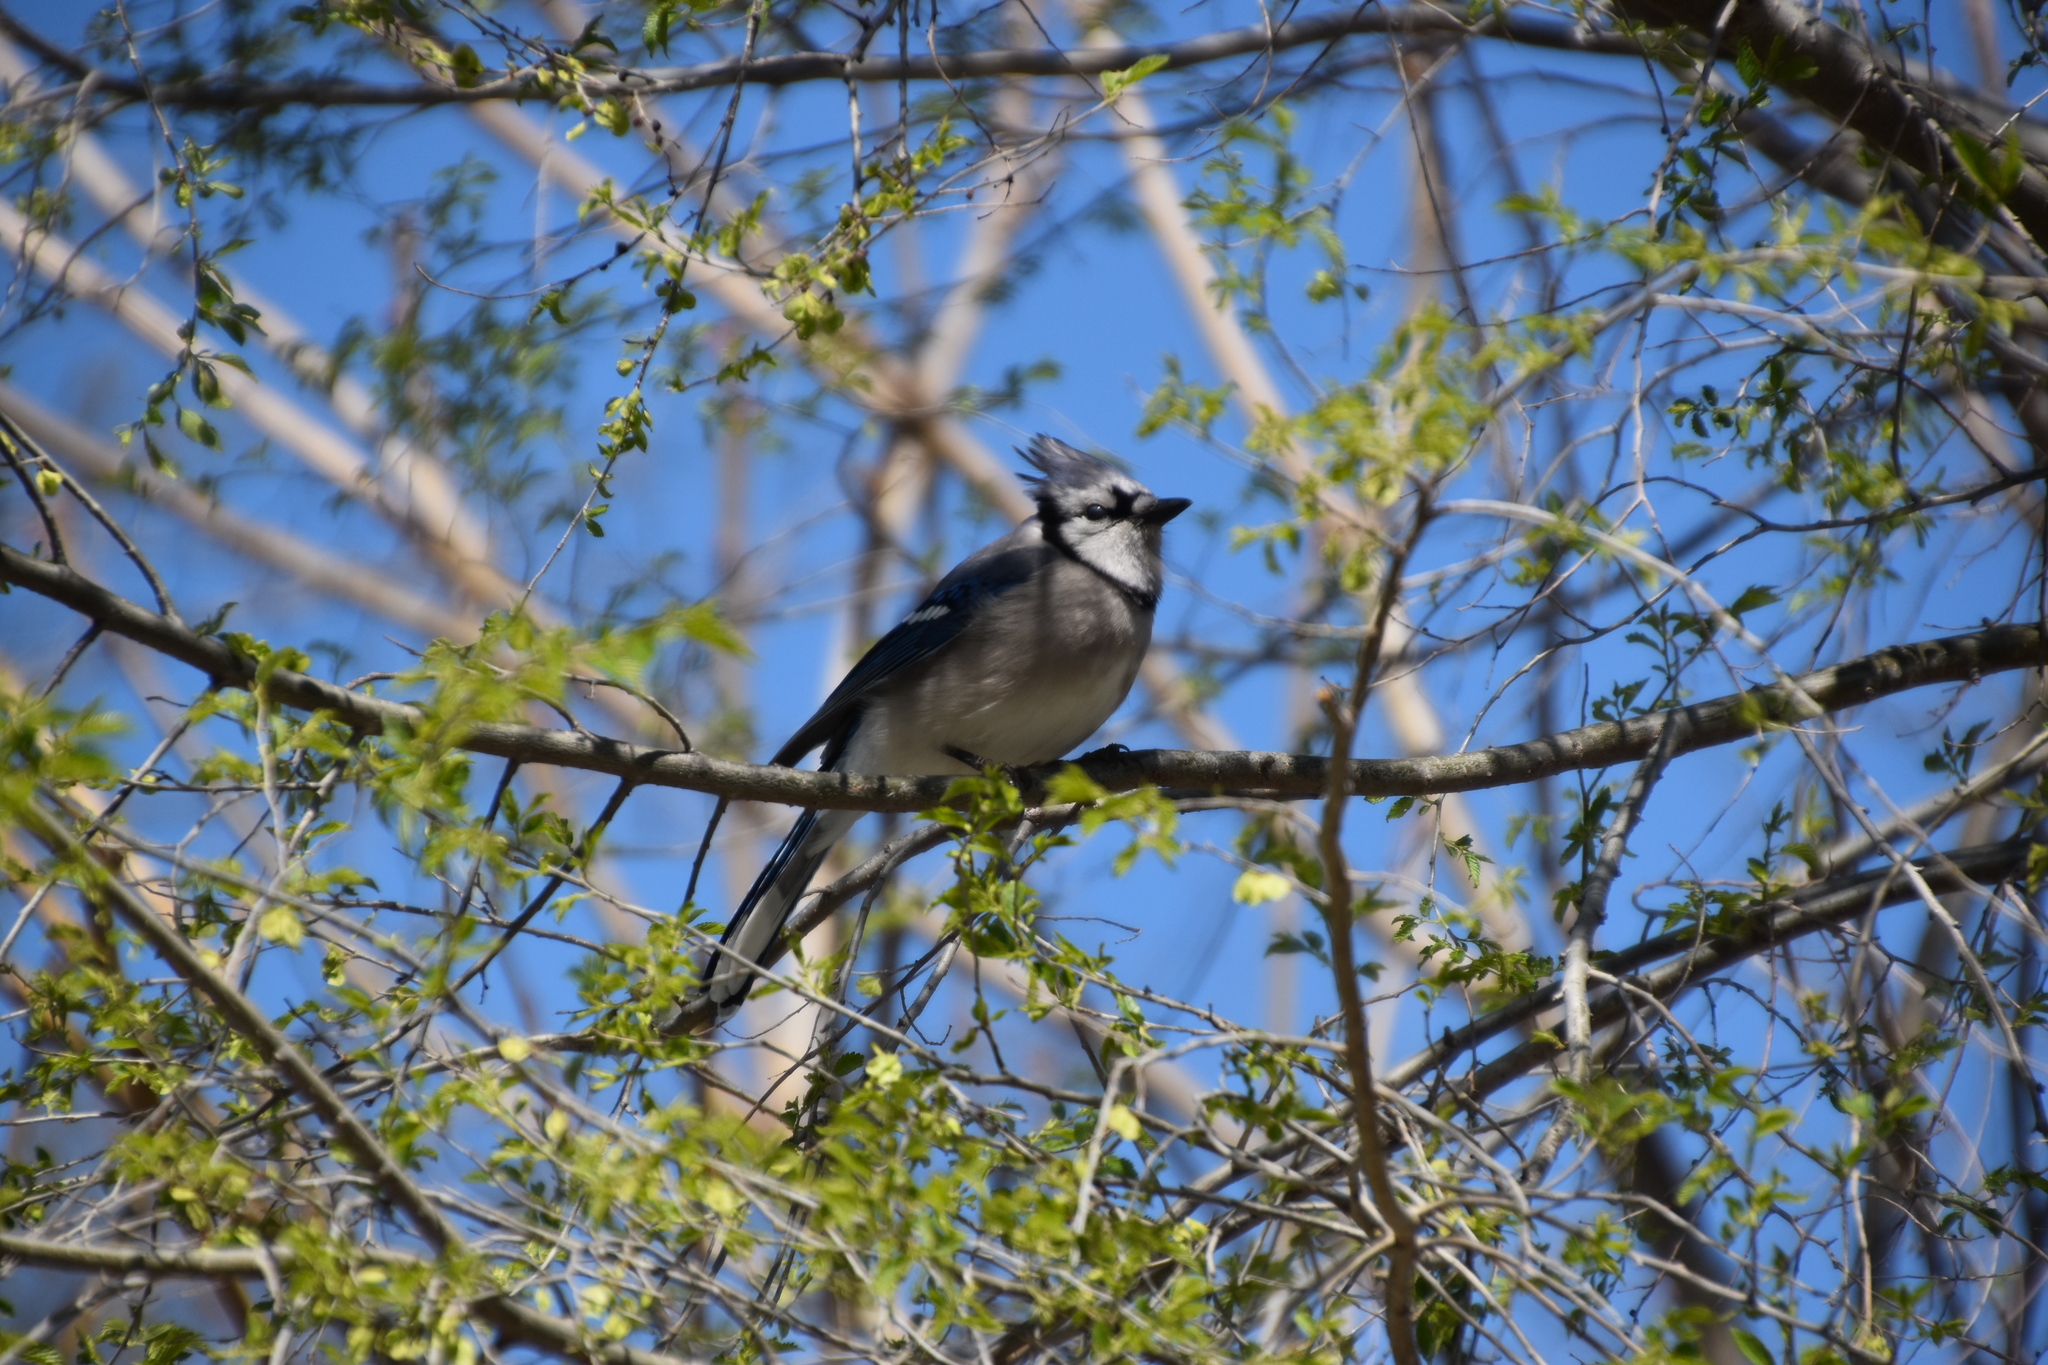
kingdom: Animalia
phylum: Chordata
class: Aves
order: Passeriformes
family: Corvidae
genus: Cyanocitta
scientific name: Cyanocitta cristata
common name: Blue jay
